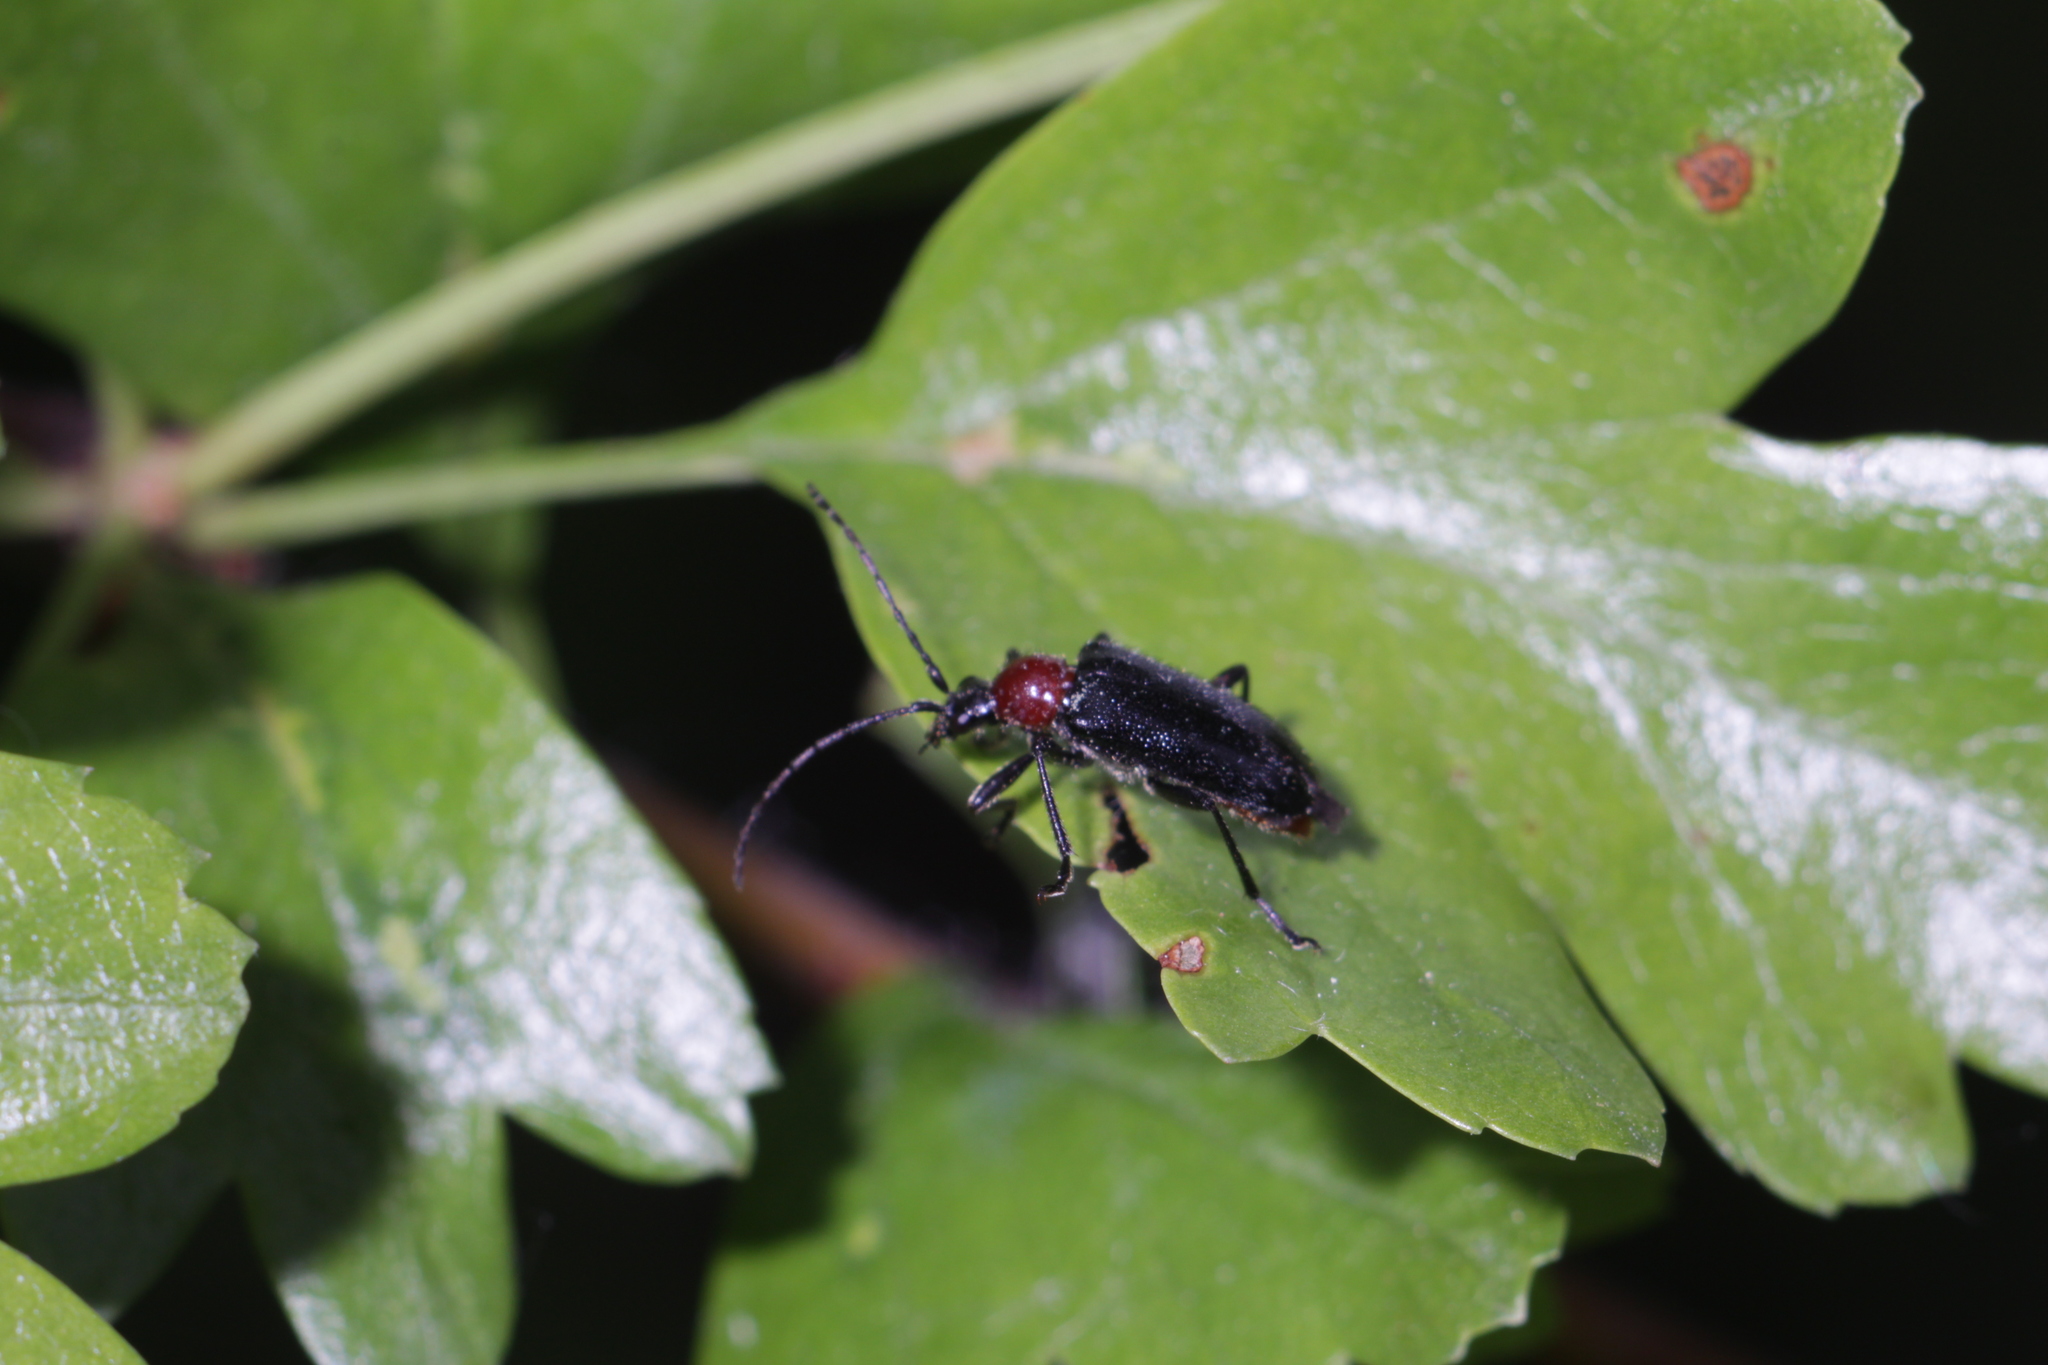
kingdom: Animalia
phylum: Arthropoda
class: Insecta
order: Coleoptera
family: Cerambycidae
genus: Dinoptera
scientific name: Dinoptera collaris
